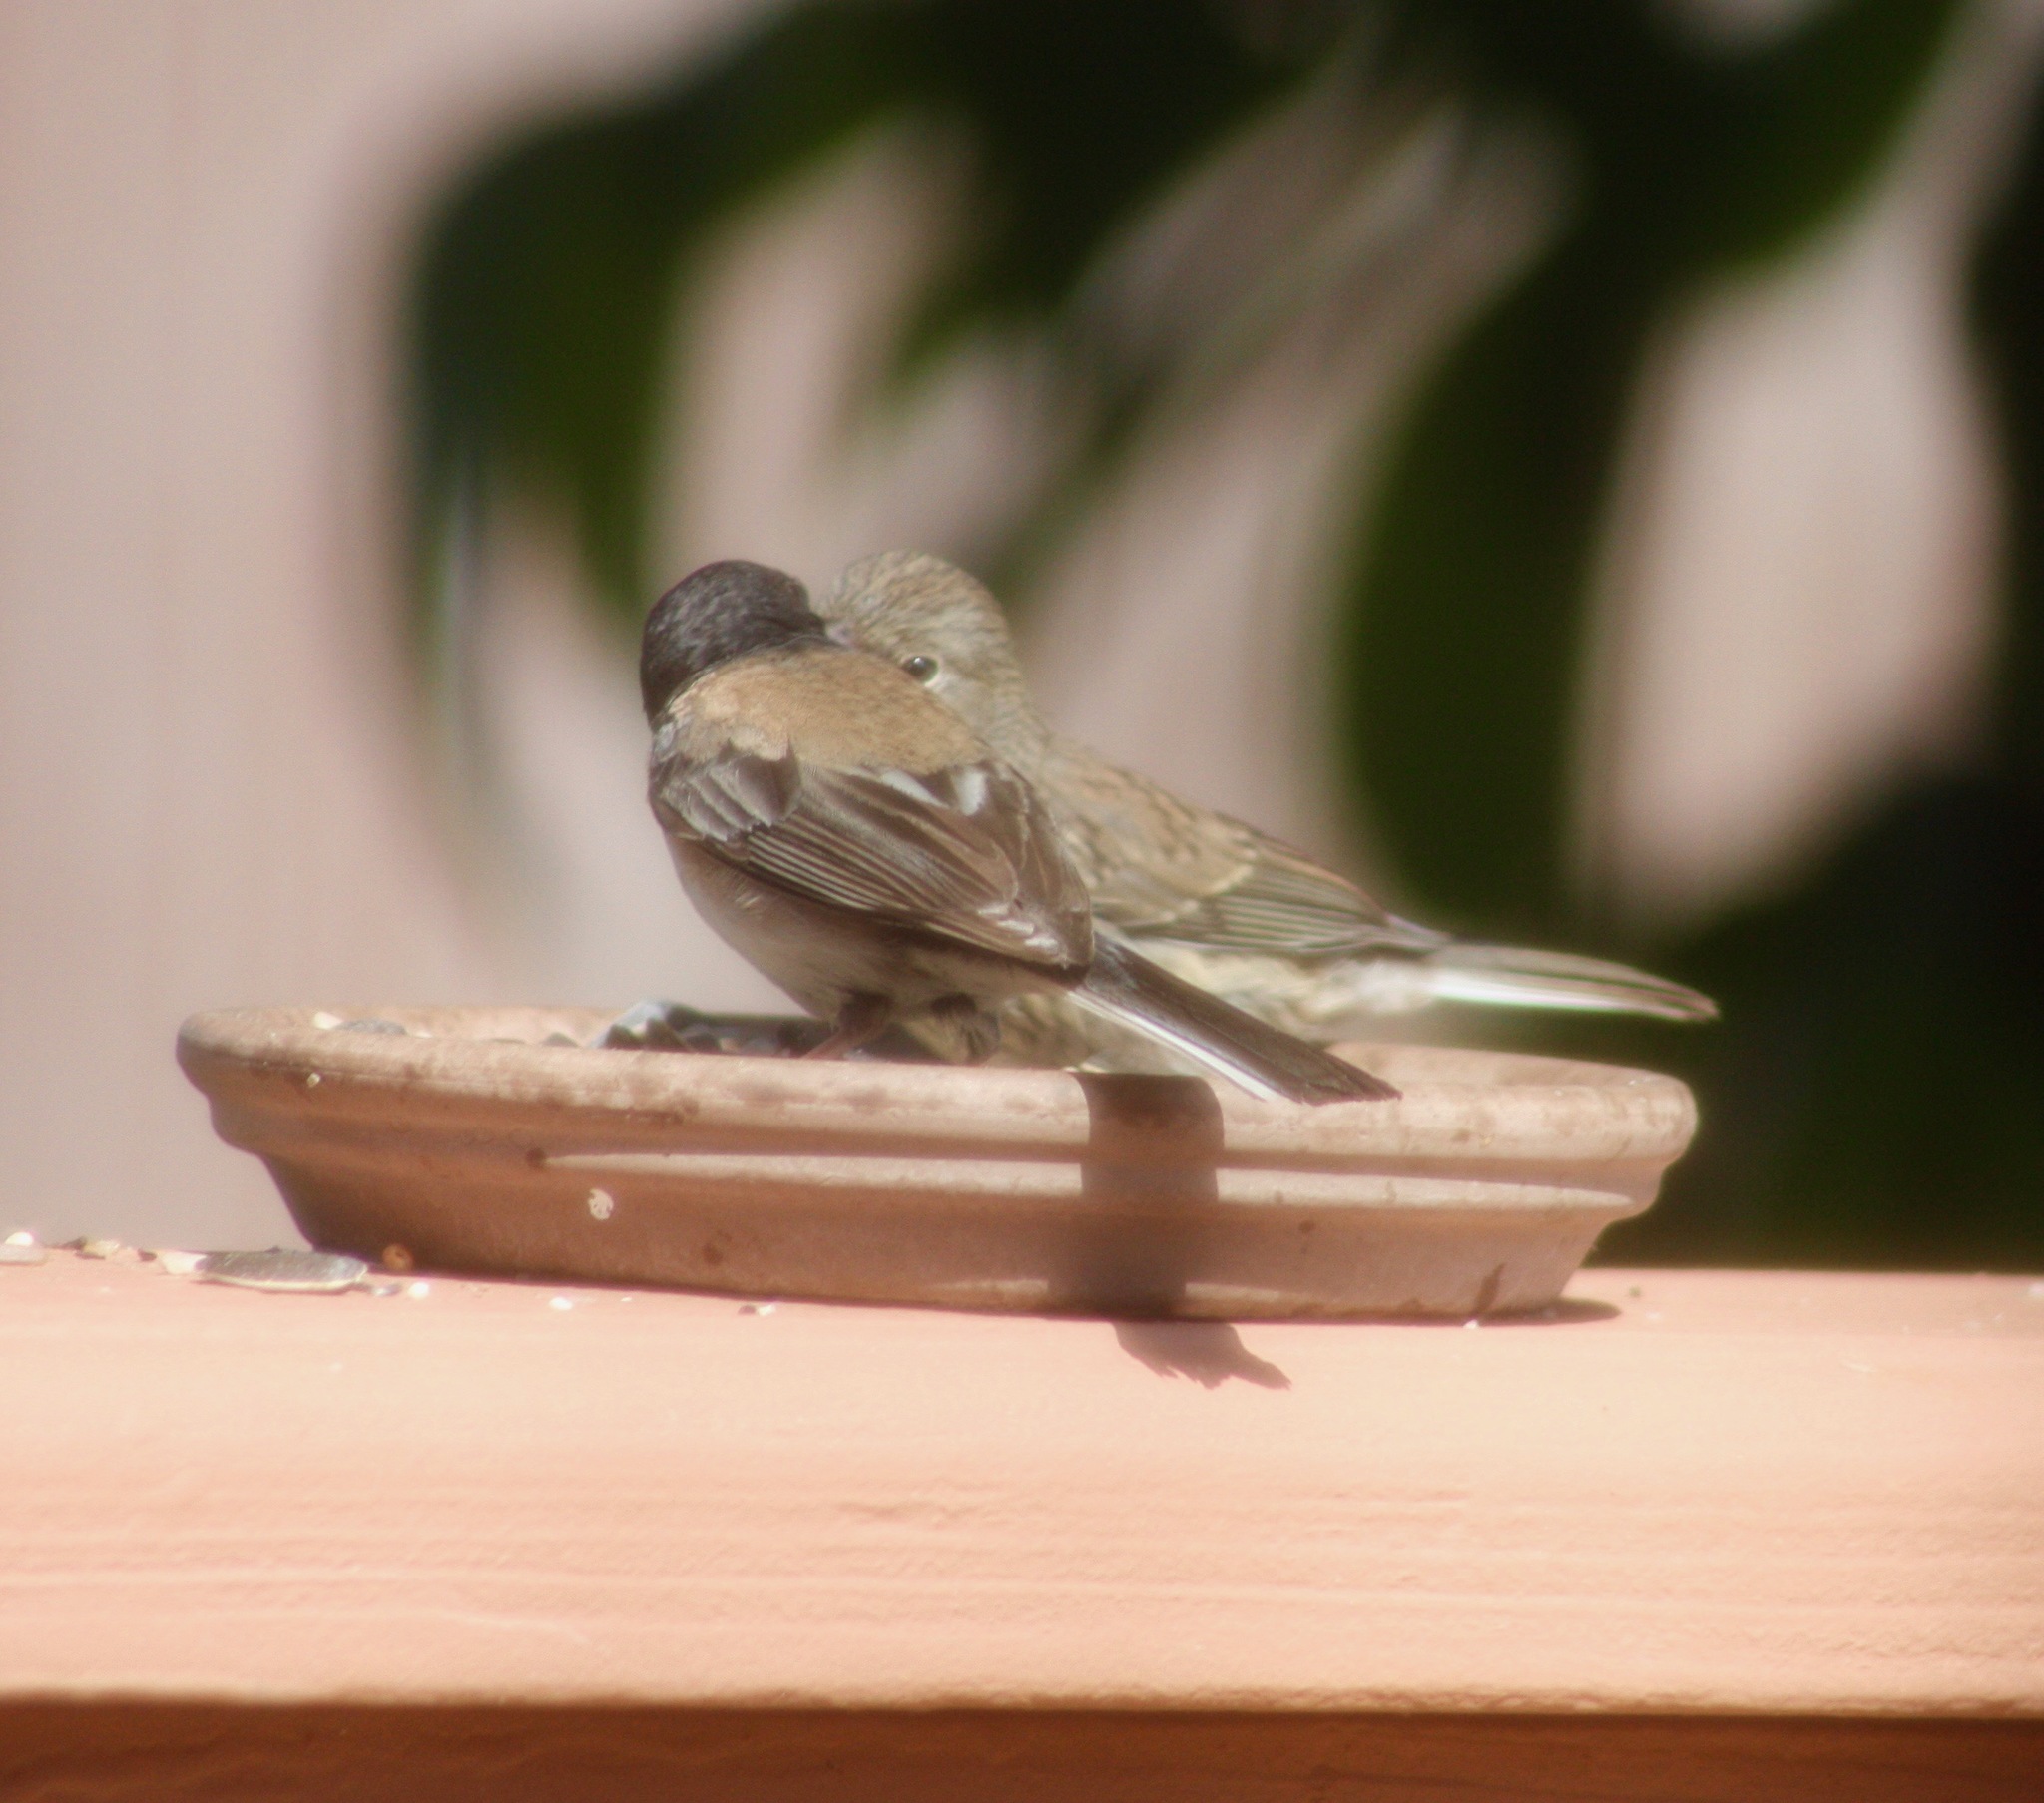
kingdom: Animalia
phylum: Chordata
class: Aves
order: Passeriformes
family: Passerellidae
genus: Junco
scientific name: Junco hyemalis
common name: Dark-eyed junco
